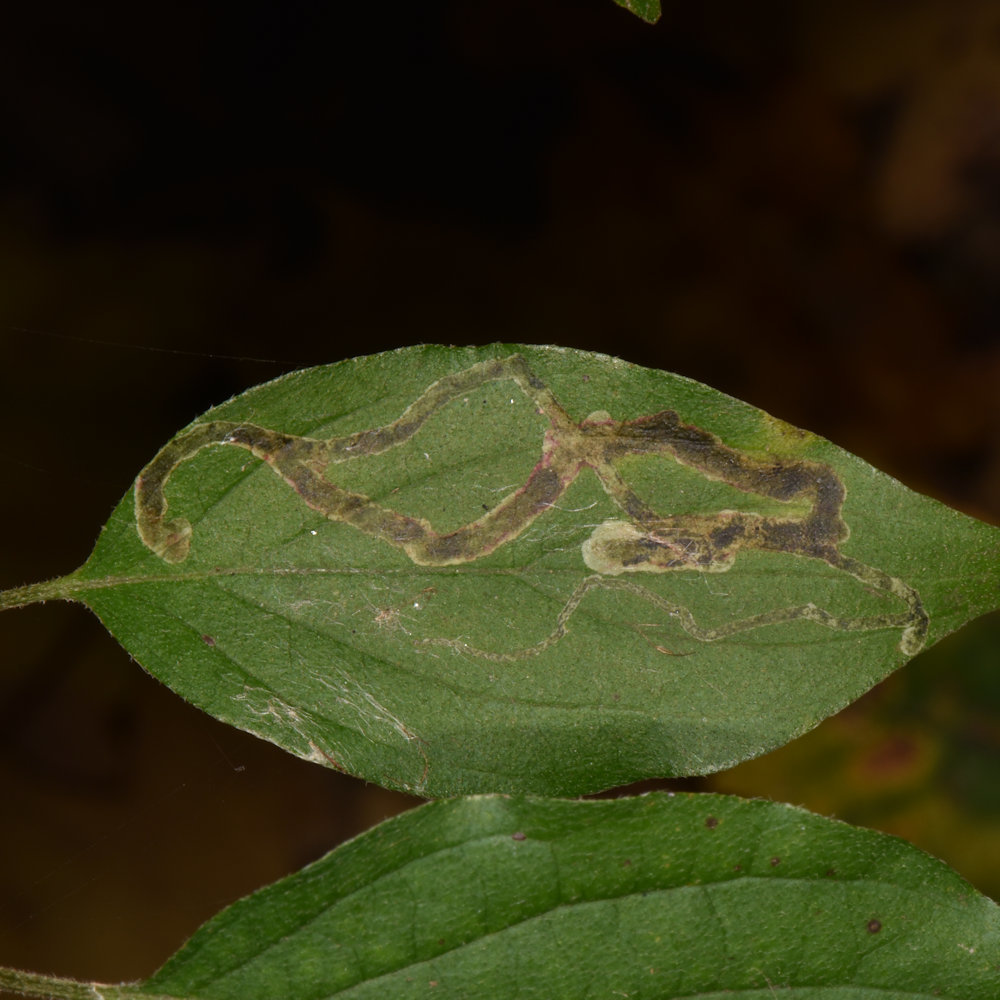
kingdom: Animalia
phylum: Arthropoda
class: Insecta
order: Diptera
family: Agromyzidae
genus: Phytomyza
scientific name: Phytomyza agromyzina
